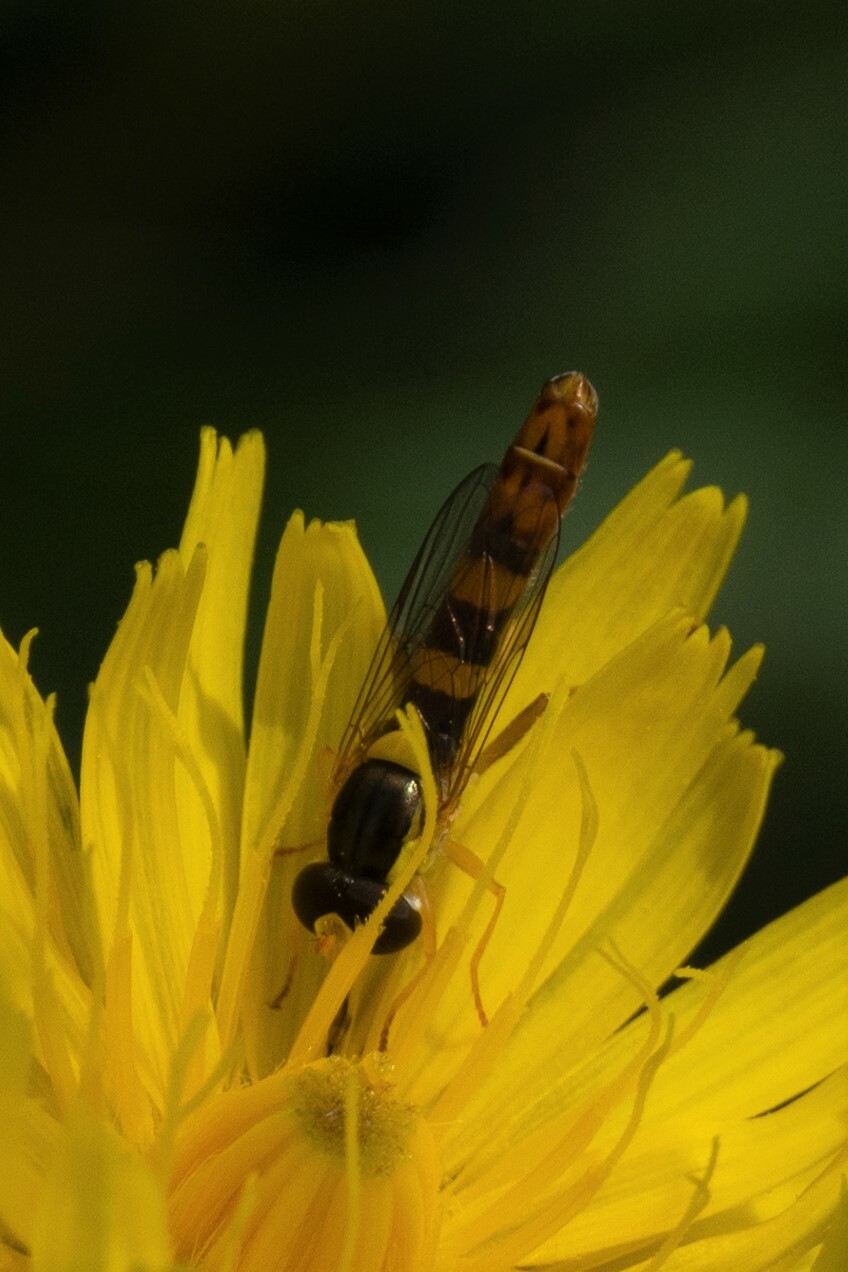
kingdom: Animalia
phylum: Arthropoda
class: Insecta
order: Diptera
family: Syrphidae
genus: Sphaerophoria
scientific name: Sphaerophoria scripta
